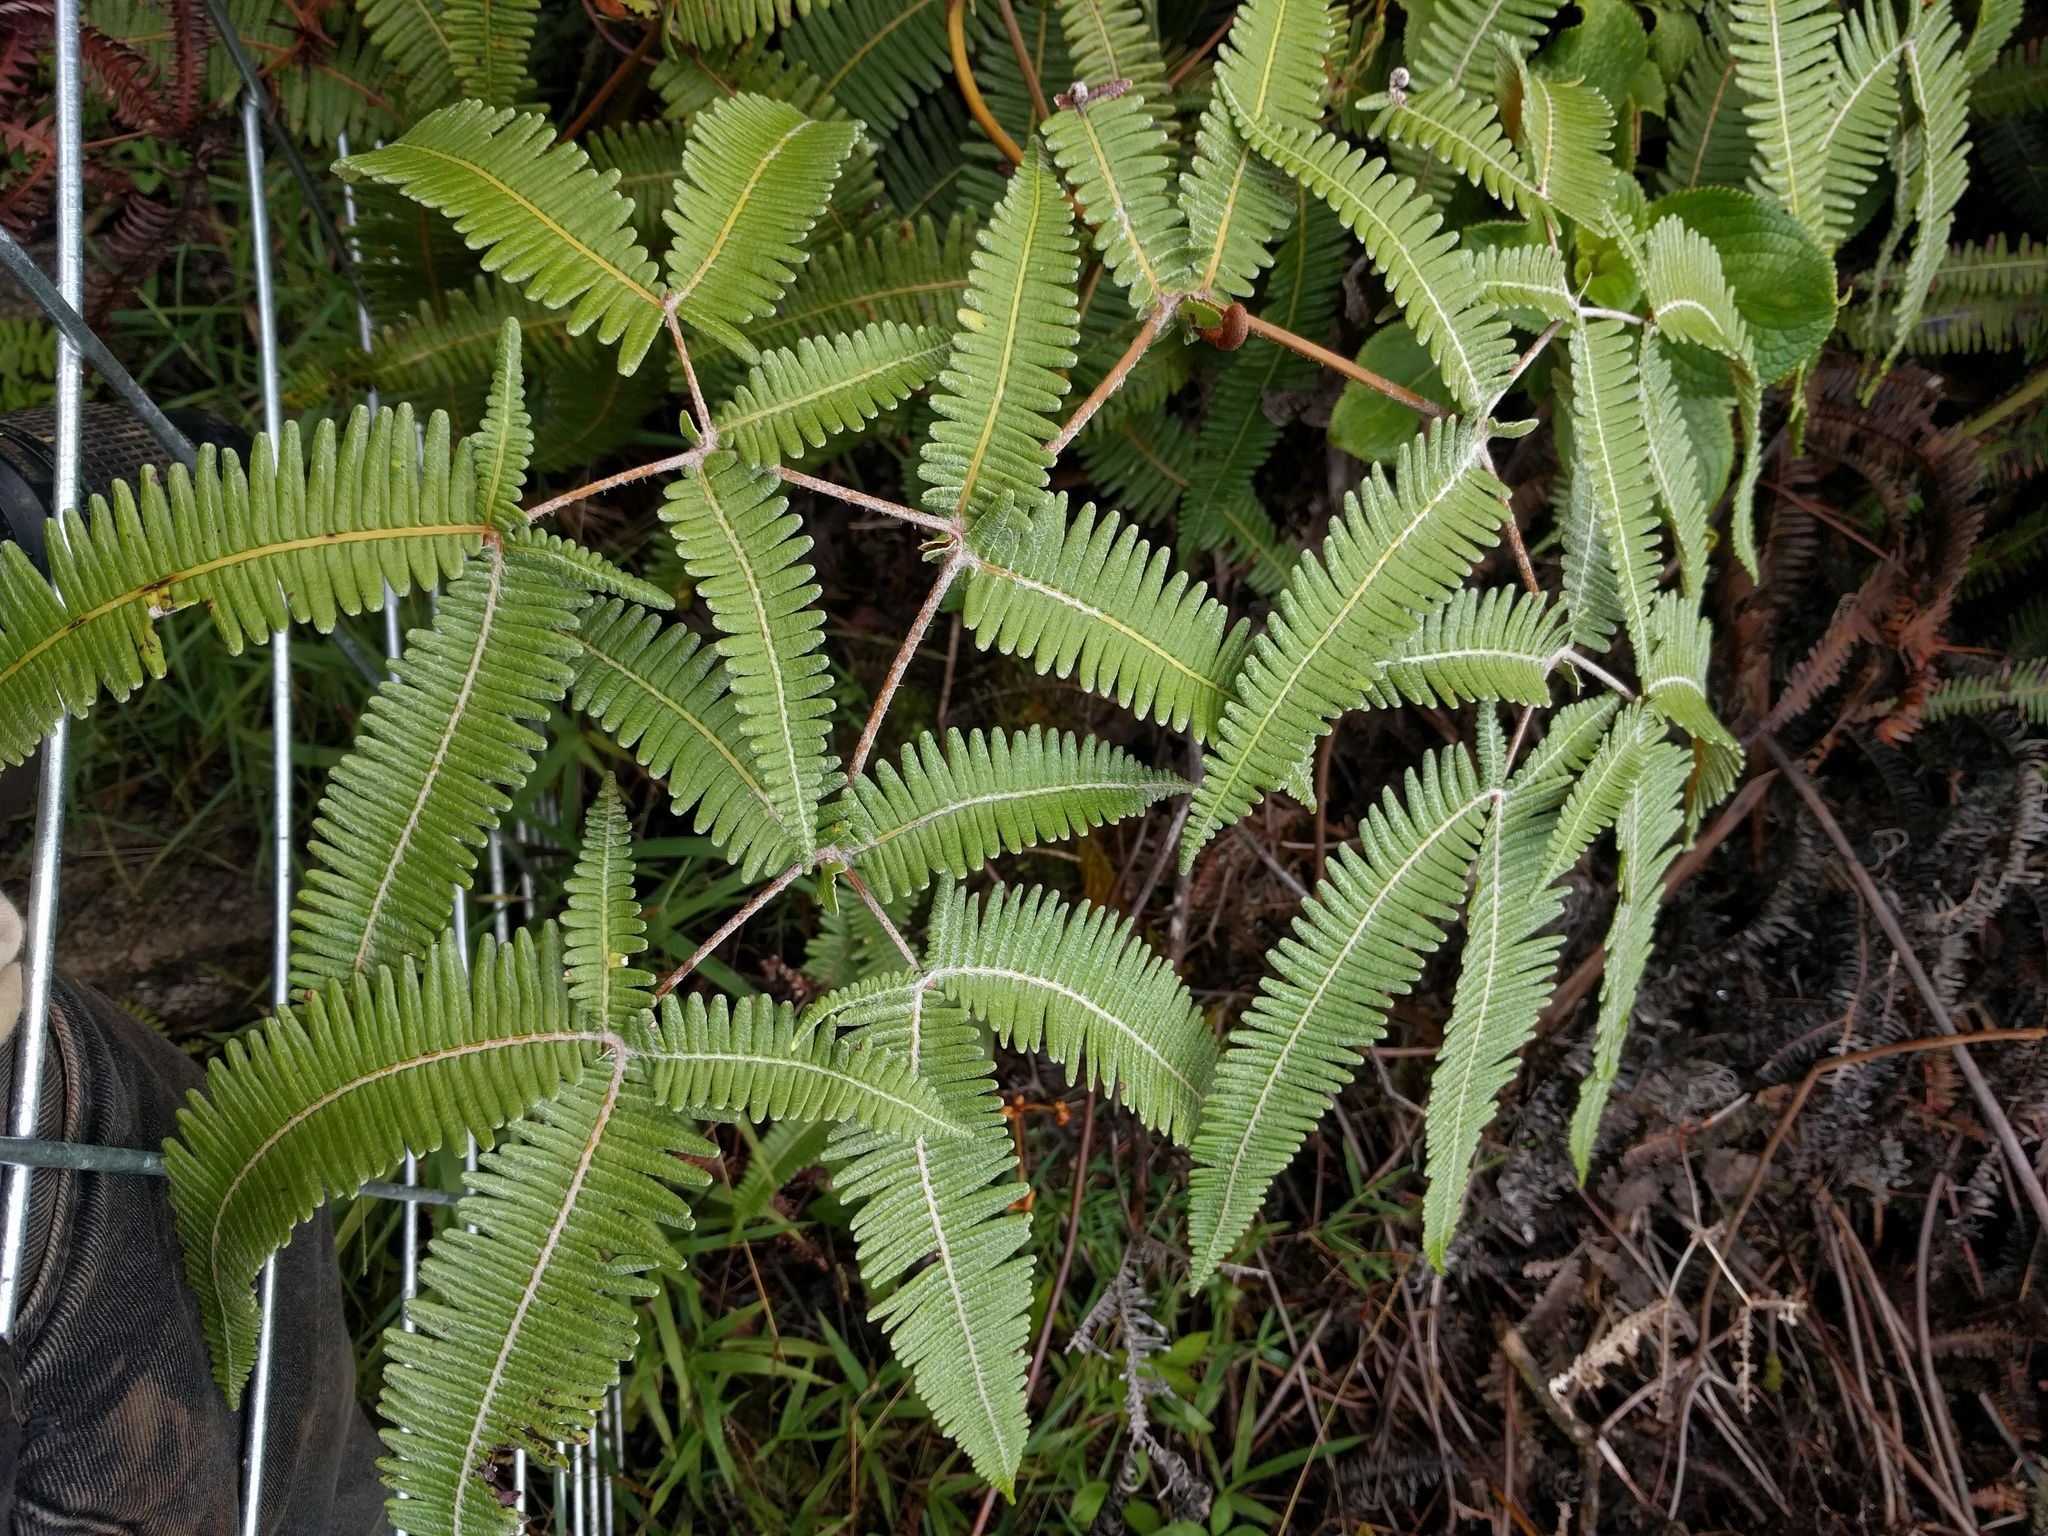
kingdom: Plantae
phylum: Tracheophyta
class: Polypodiopsida
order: Gleicheniales
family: Gleicheniaceae
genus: Dicranopteris
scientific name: Dicranopteris linearis
